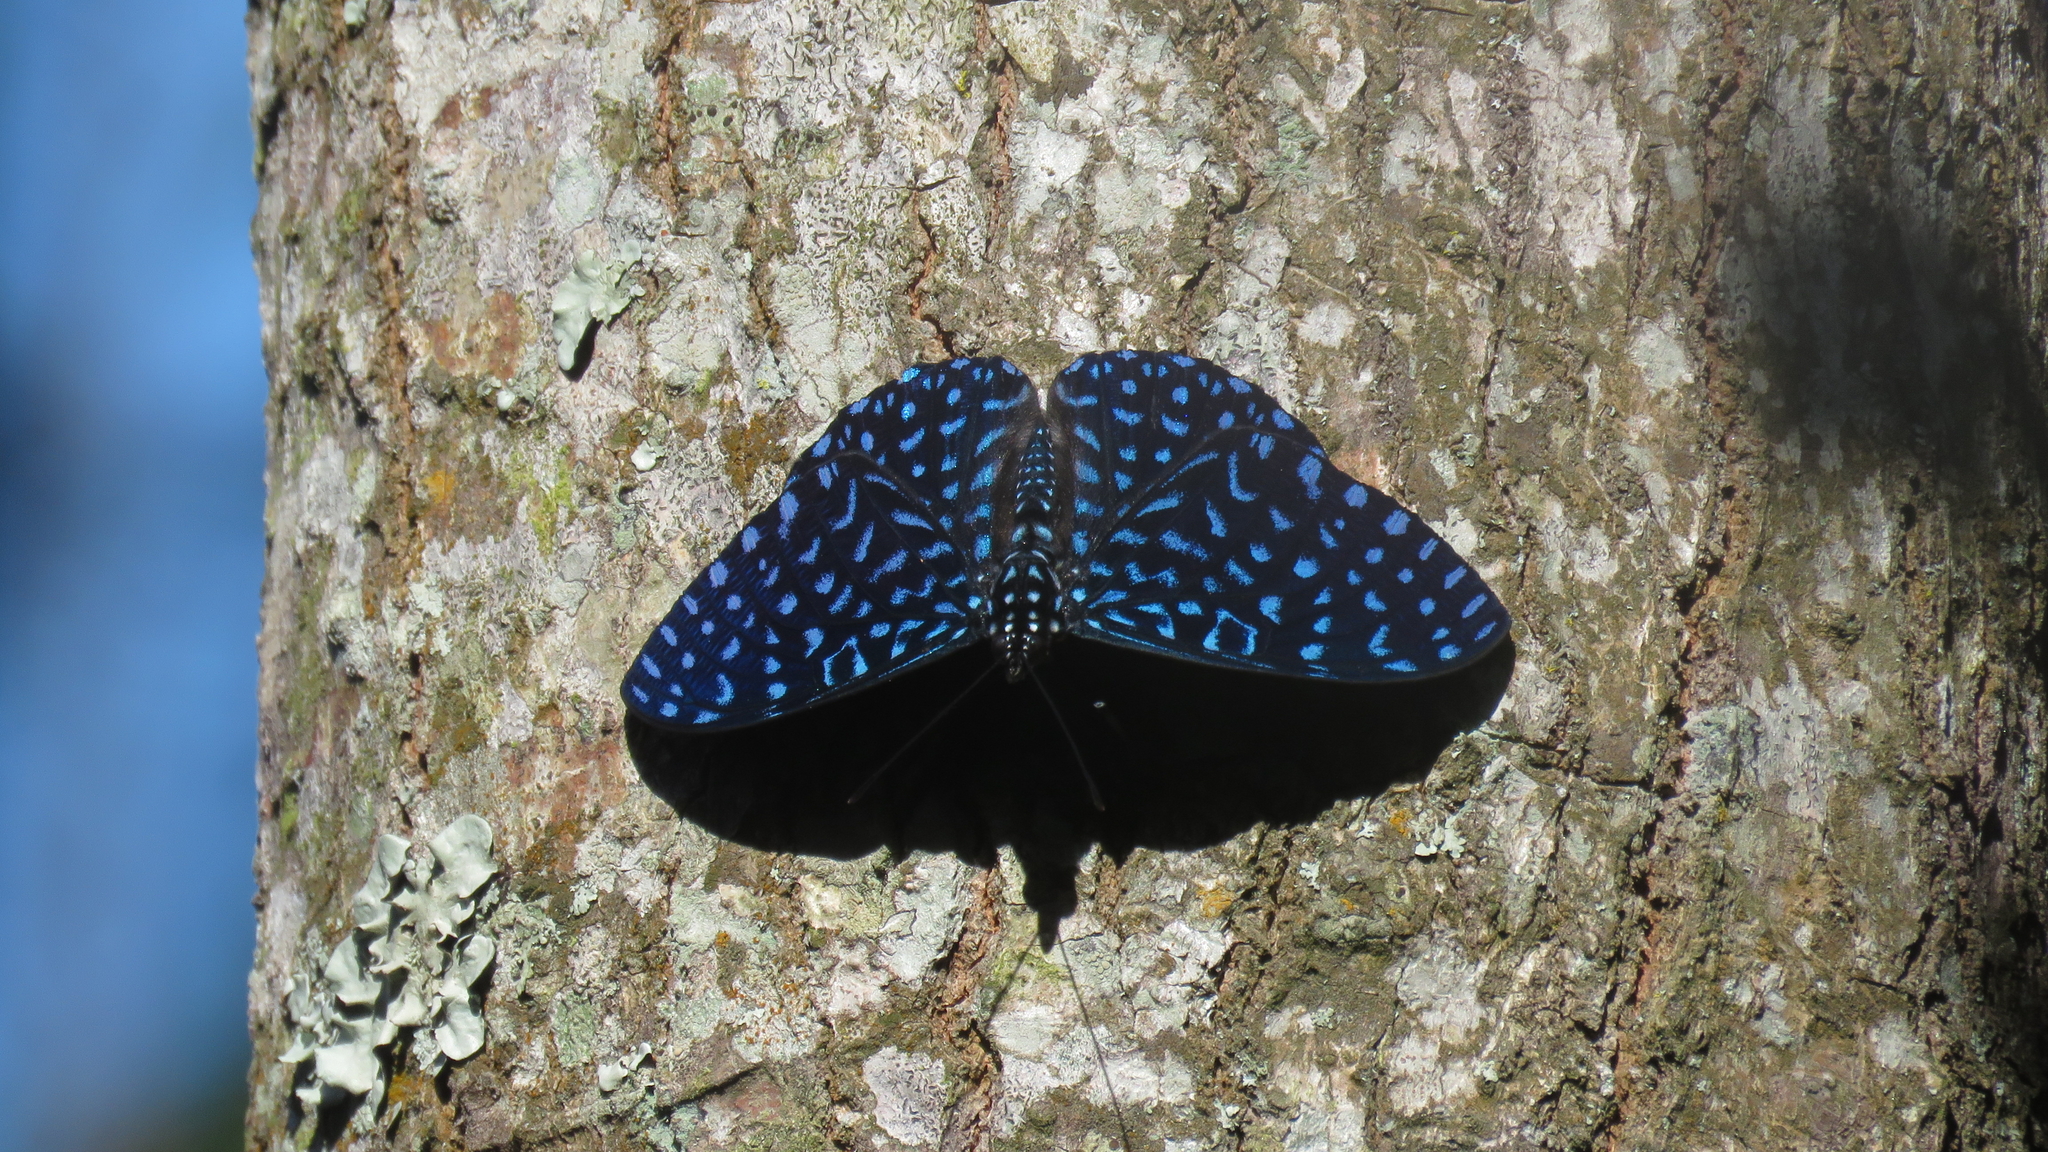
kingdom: Animalia
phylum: Arthropoda
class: Insecta
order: Lepidoptera
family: Nymphalidae
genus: Hamadryas
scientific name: Hamadryas arete
